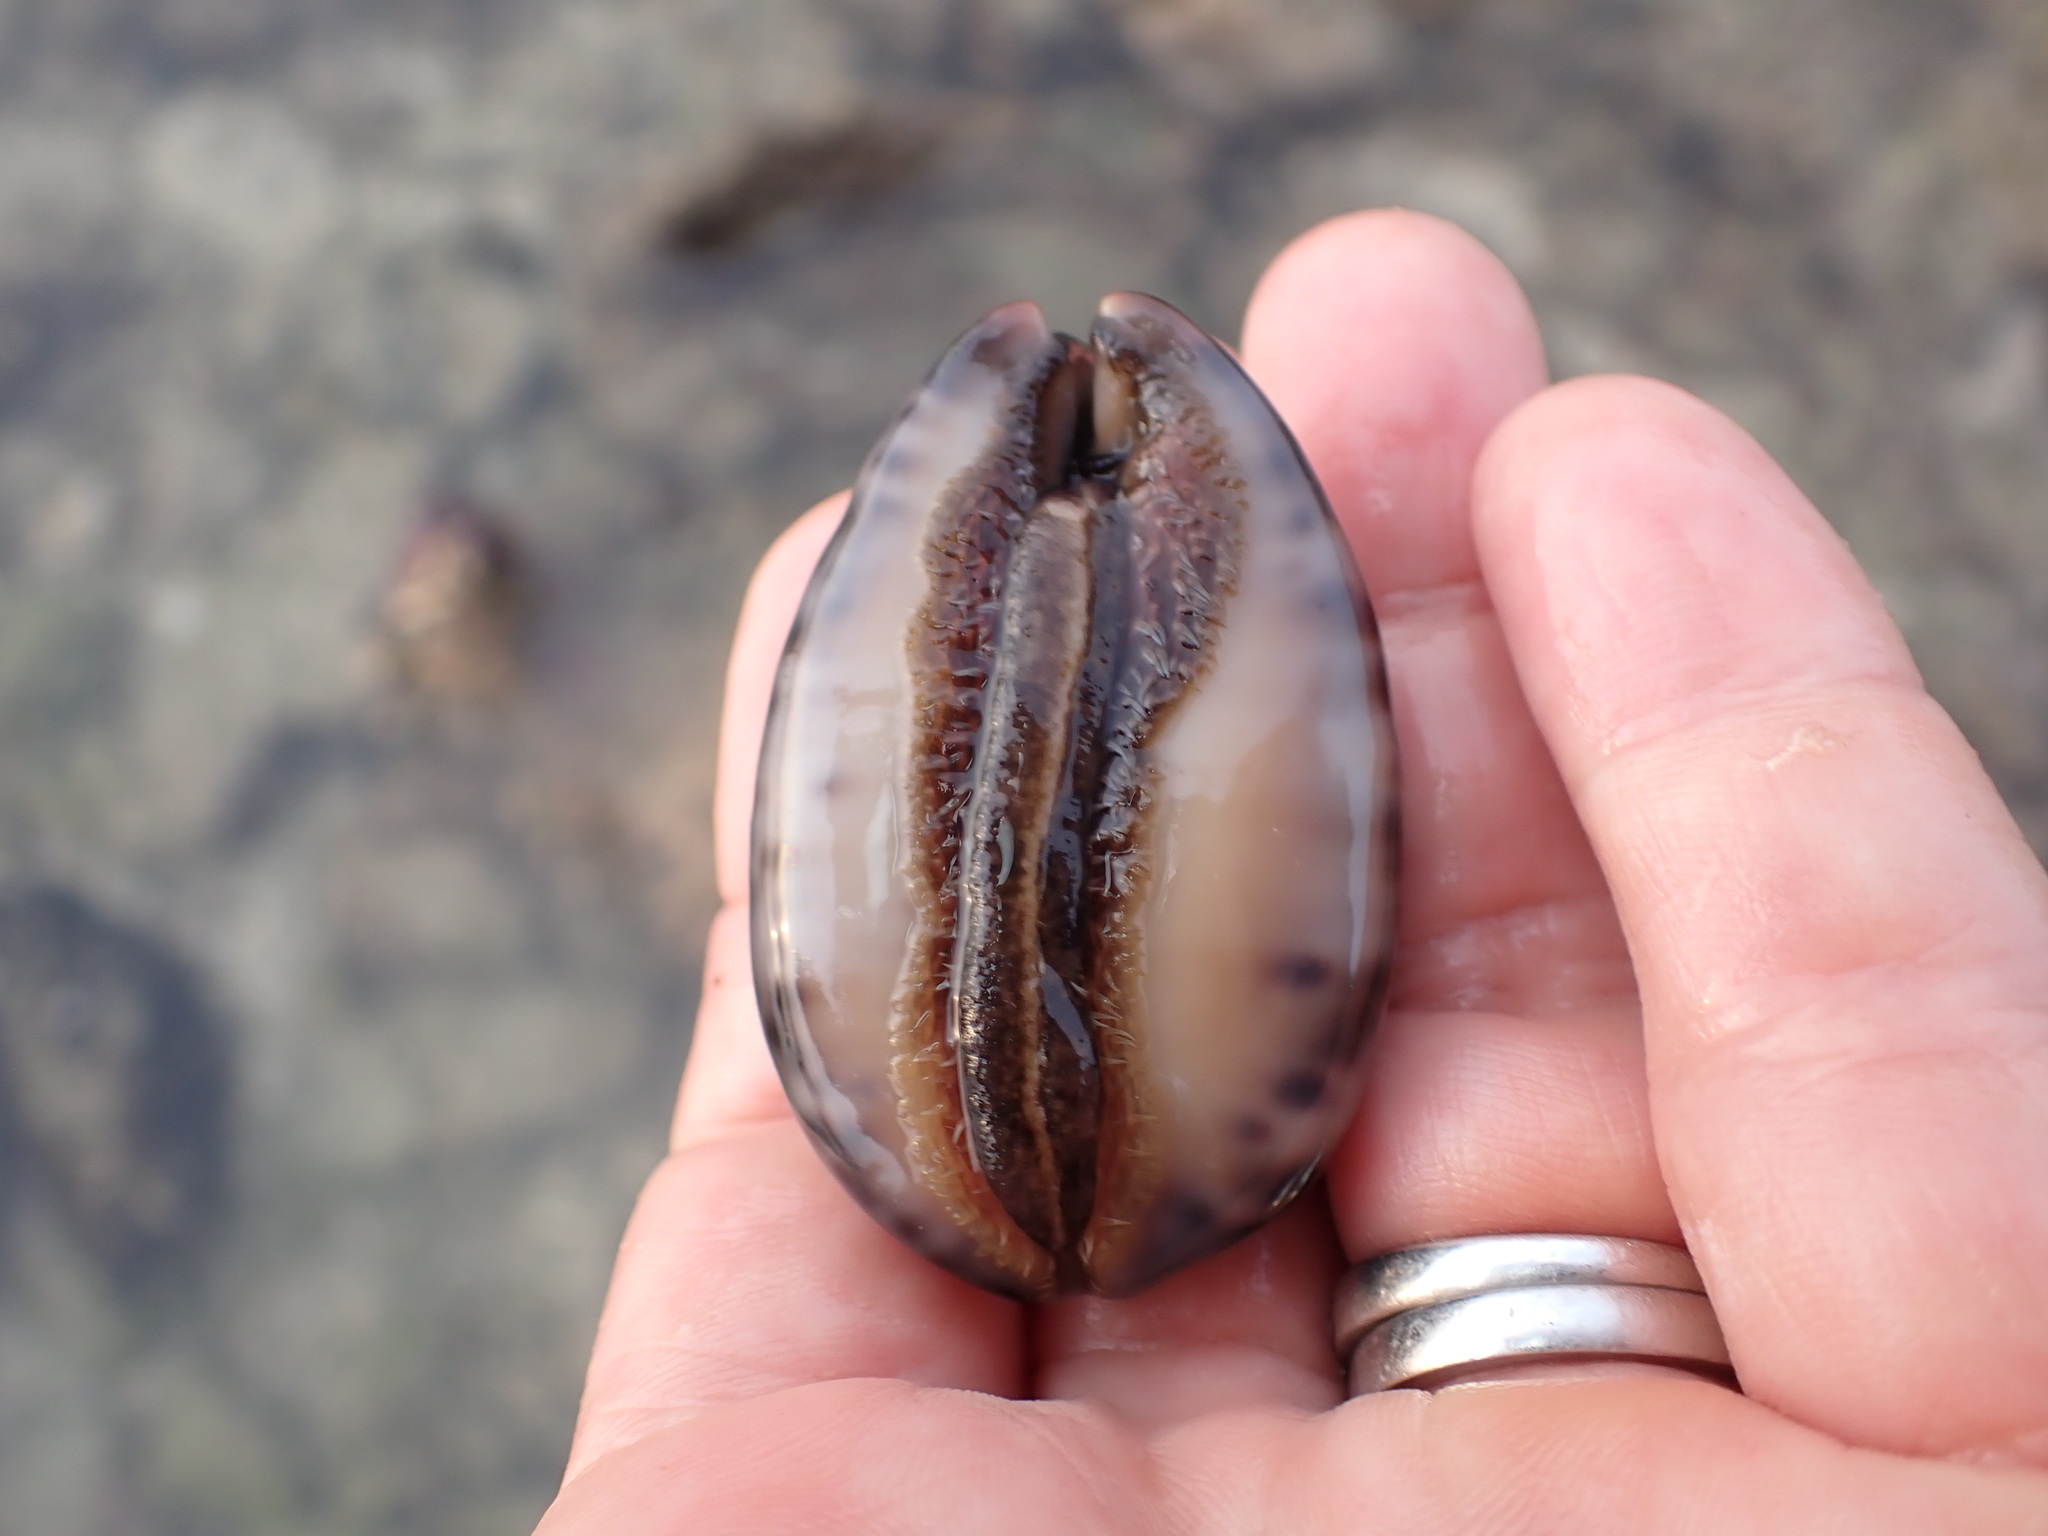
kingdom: Animalia
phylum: Mollusca
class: Gastropoda
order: Littorinimorpha
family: Cypraeidae
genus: Mauritia
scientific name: Mauritia arabica
